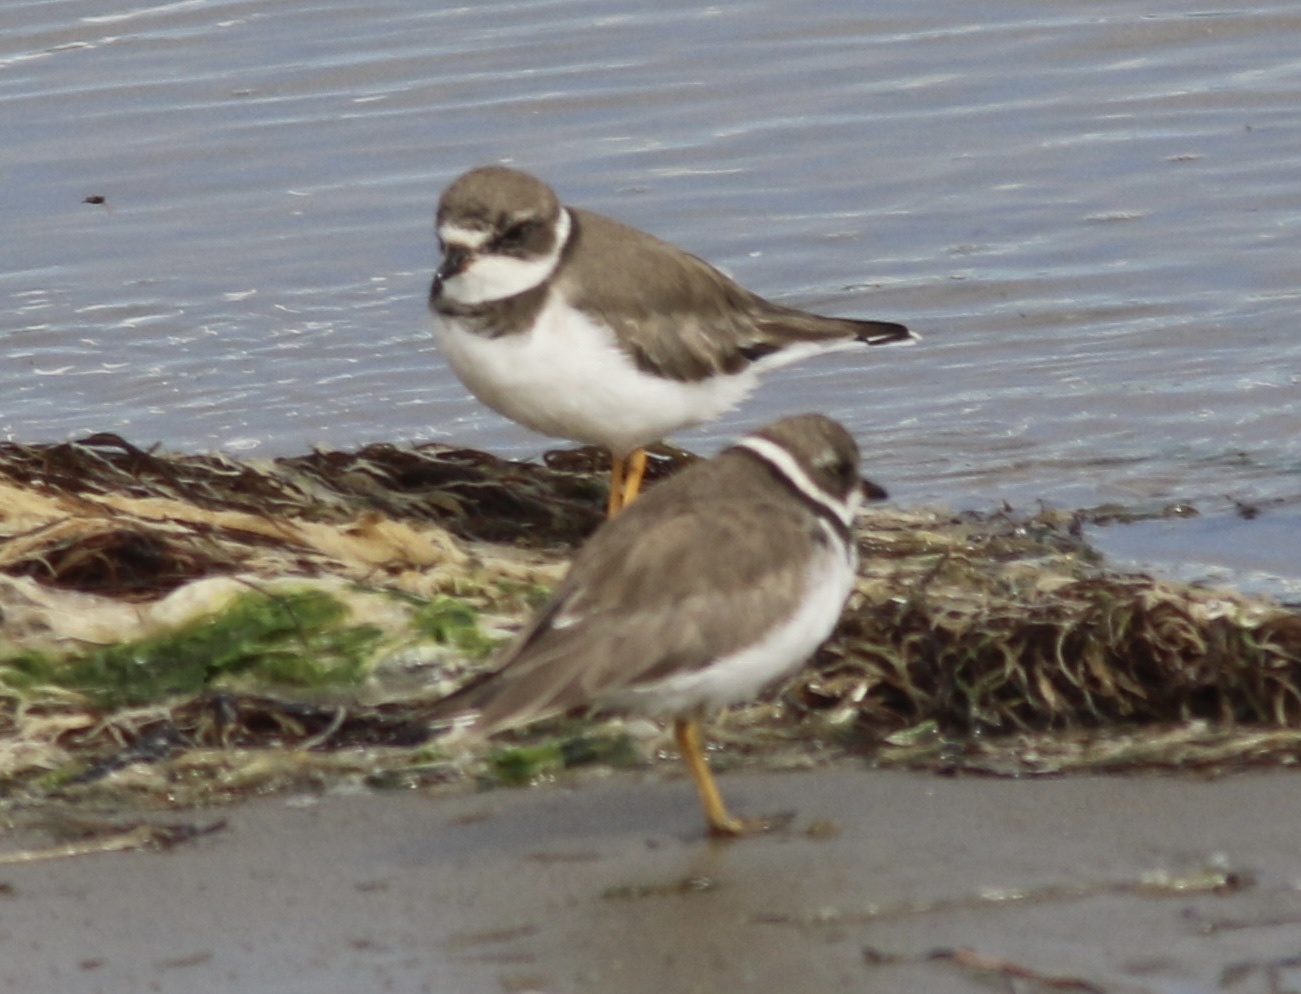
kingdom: Animalia
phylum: Chordata
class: Aves
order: Charadriiformes
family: Charadriidae
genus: Charadrius
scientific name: Charadrius semipalmatus
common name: Semipalmated plover
